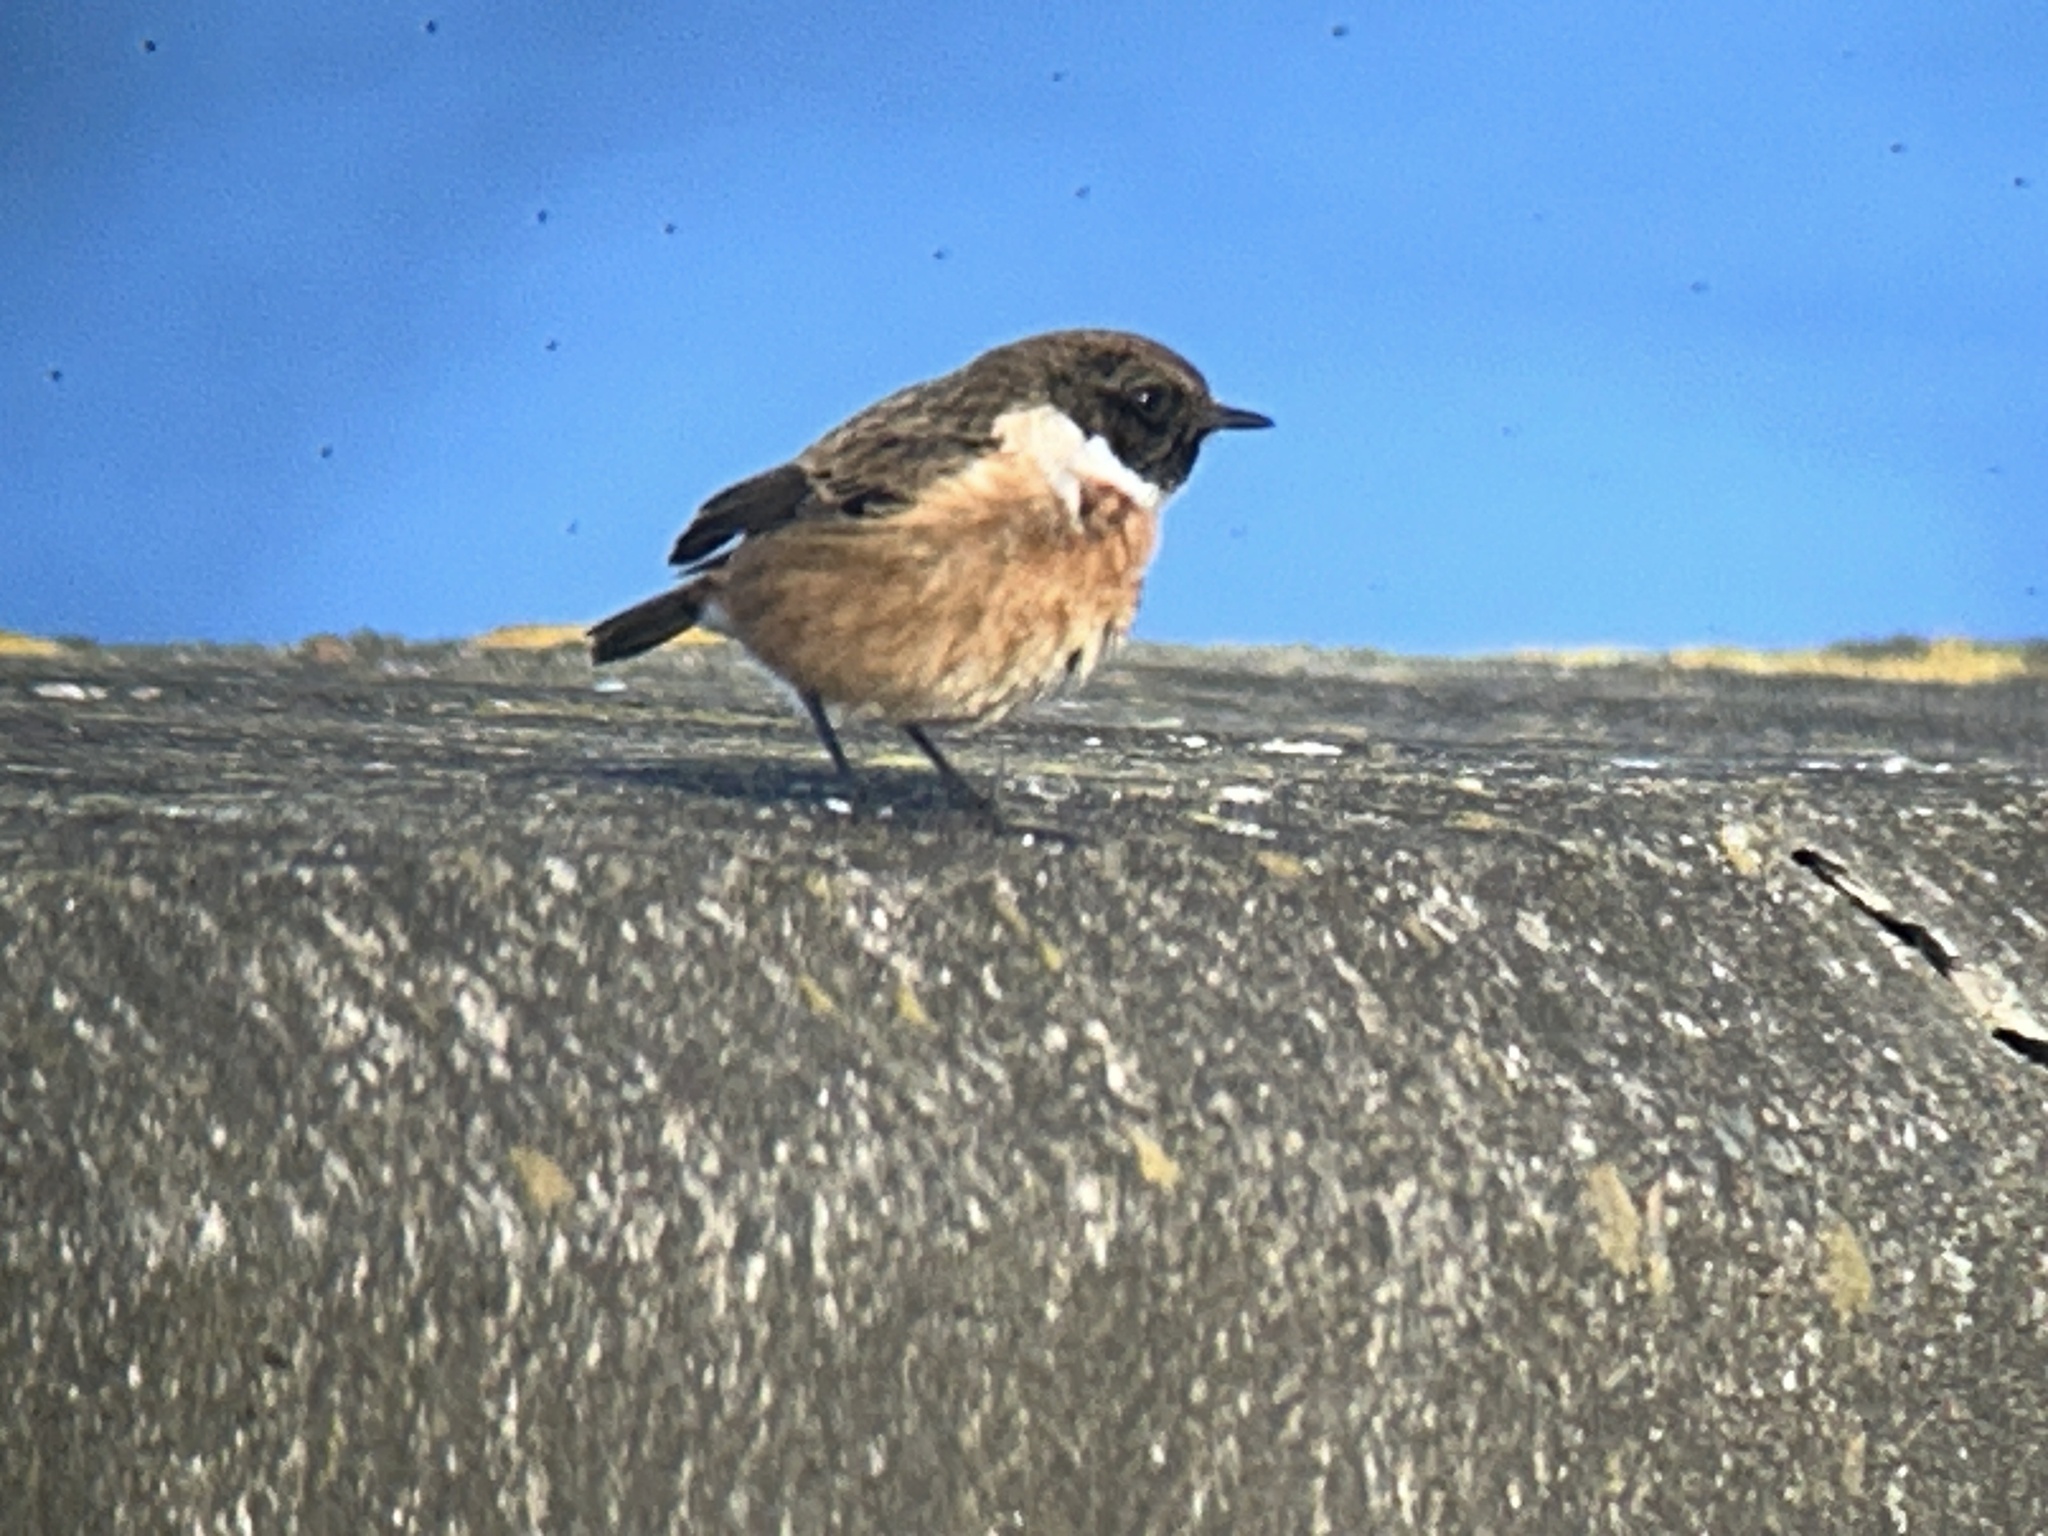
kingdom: Animalia
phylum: Chordata
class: Aves
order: Passeriformes
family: Muscicapidae
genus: Saxicola
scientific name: Saxicola rubicola
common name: European stonechat
